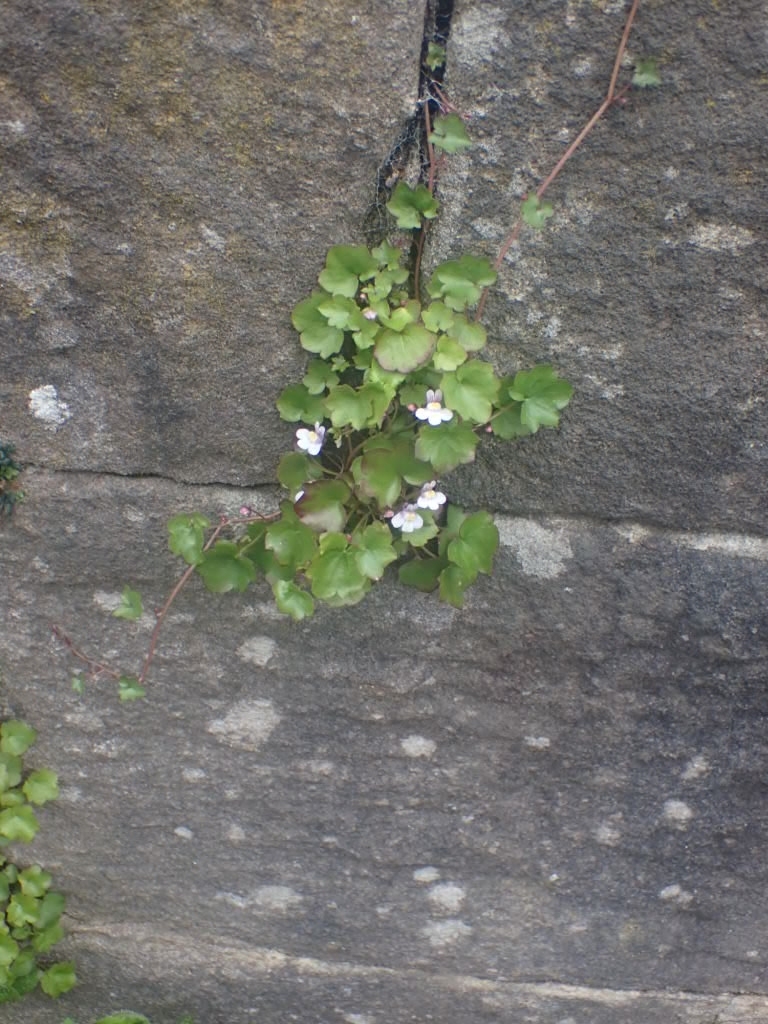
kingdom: Plantae
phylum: Tracheophyta
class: Magnoliopsida
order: Lamiales
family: Plantaginaceae
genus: Cymbalaria
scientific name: Cymbalaria muralis
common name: Ivy-leaved toadflax
